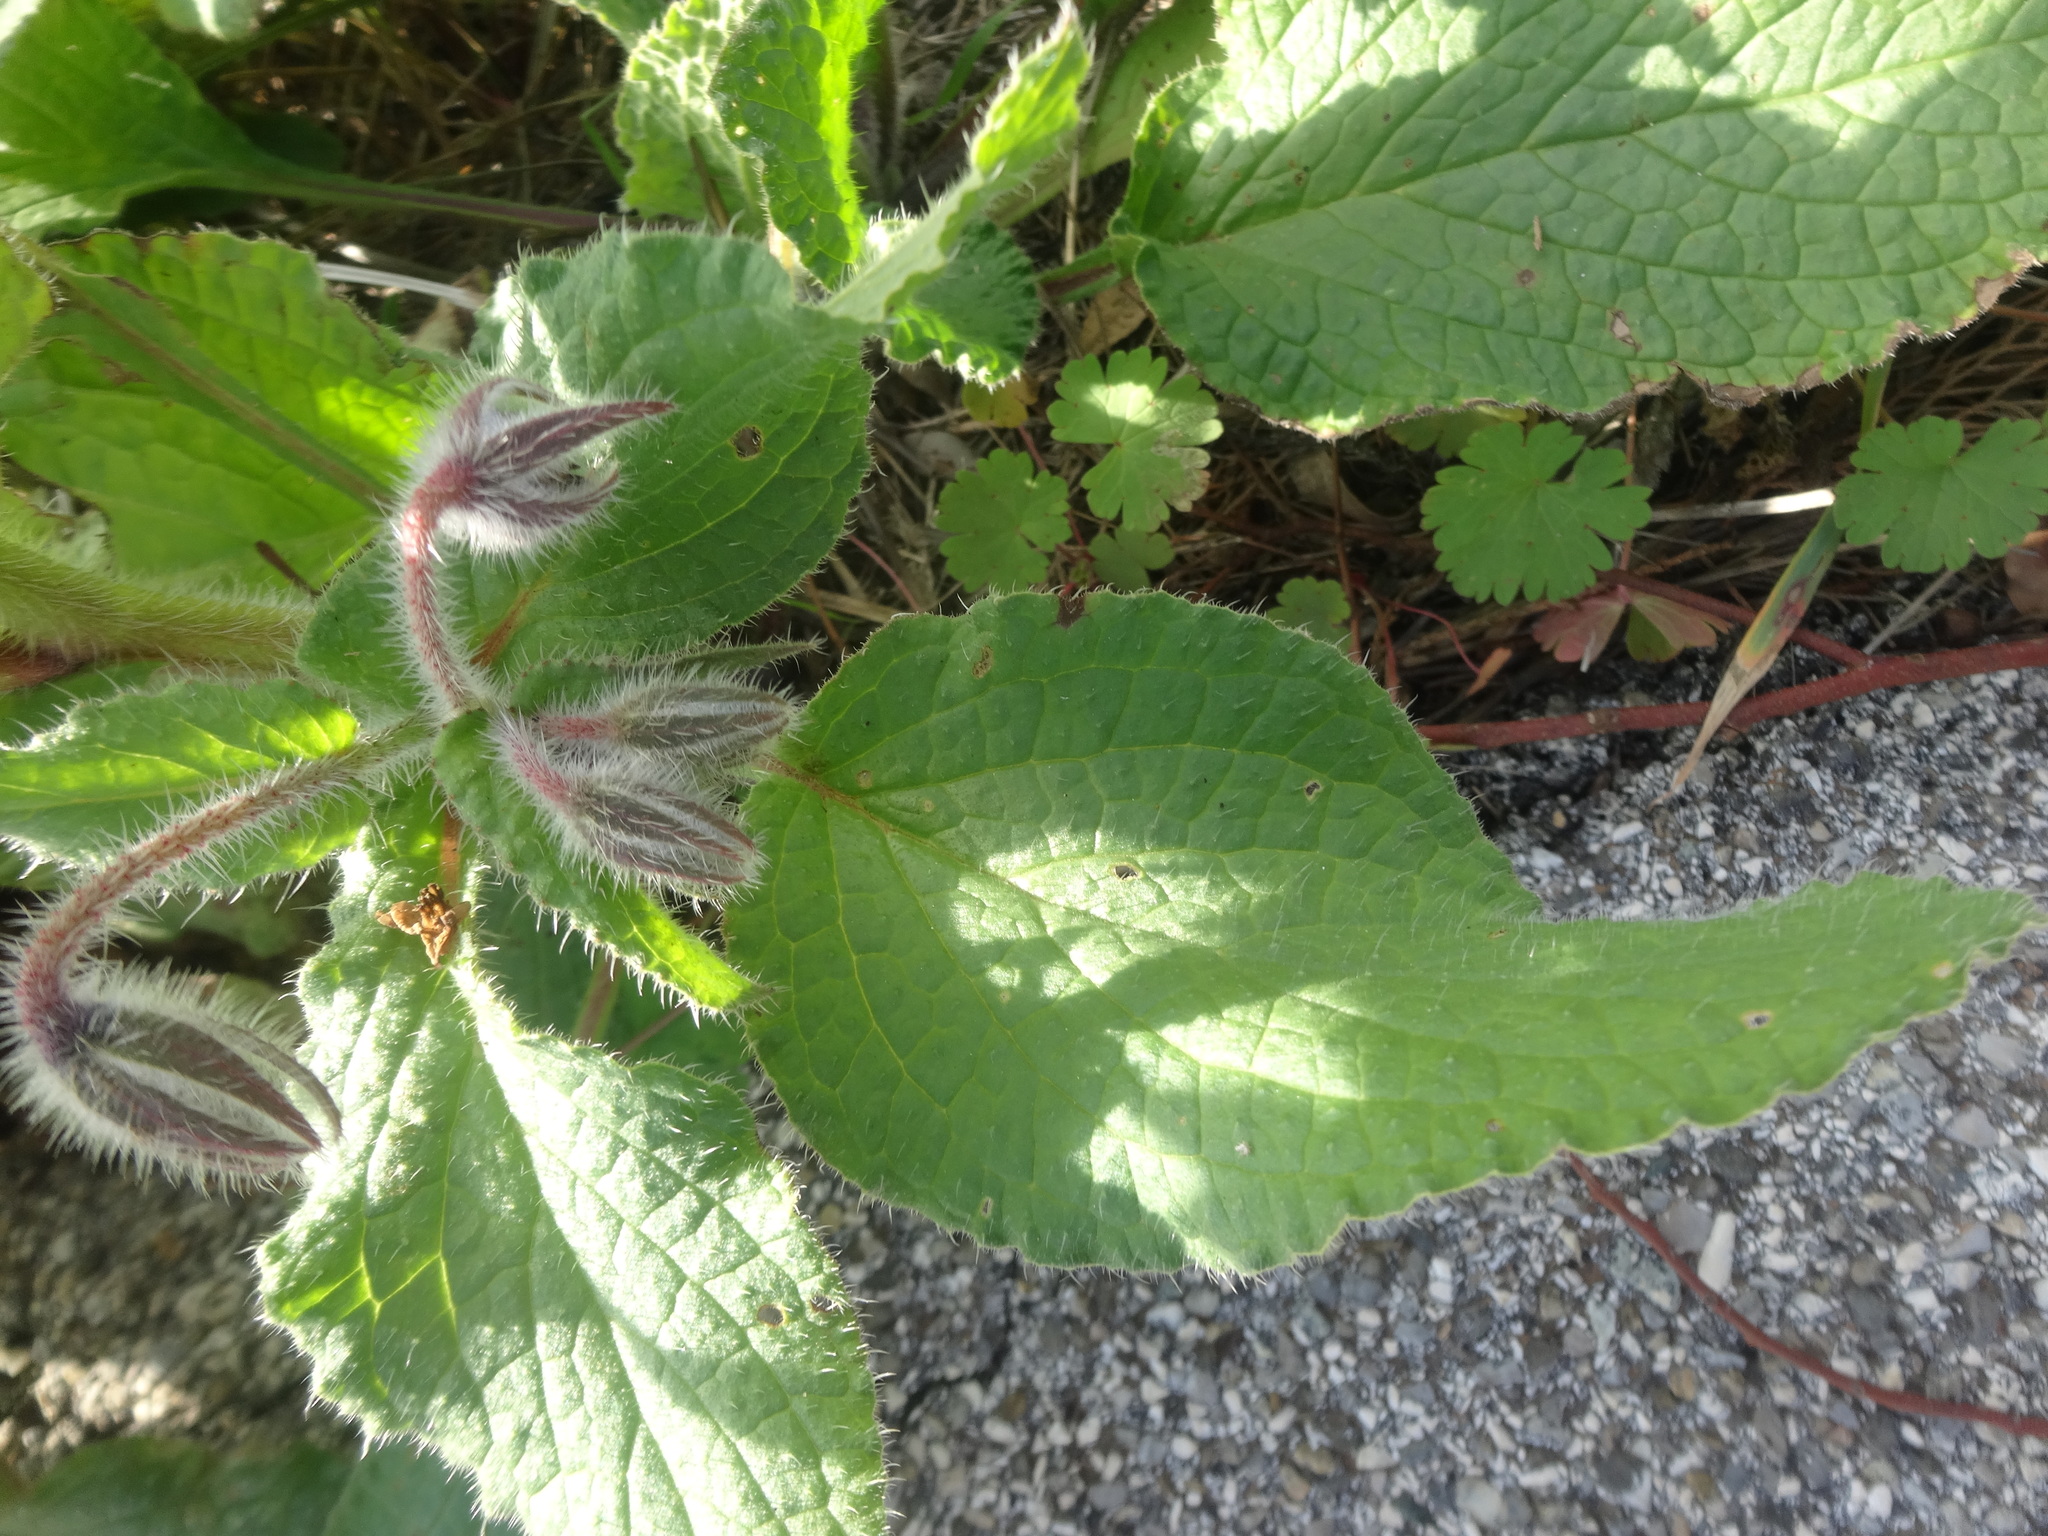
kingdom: Plantae
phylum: Tracheophyta
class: Magnoliopsida
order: Boraginales
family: Boraginaceae
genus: Borago
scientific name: Borago officinalis
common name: Borage
